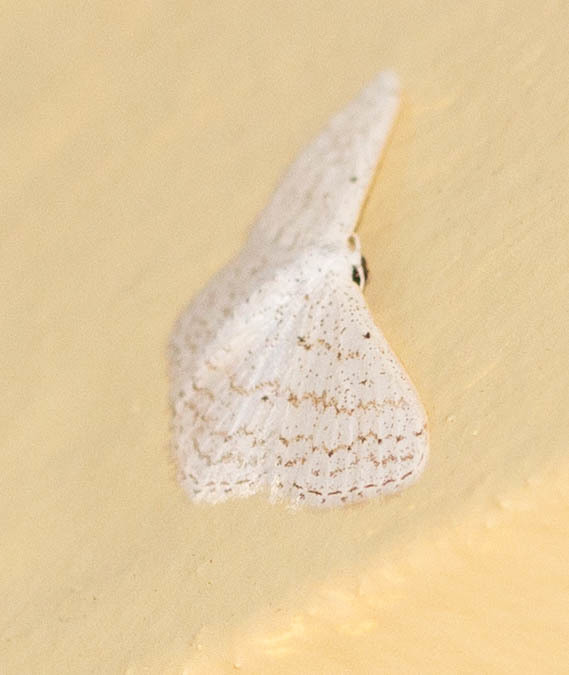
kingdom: Animalia
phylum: Arthropoda
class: Insecta
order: Lepidoptera
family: Geometridae
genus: Idaea
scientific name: Idaea tacturata
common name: Dot-lined wave
